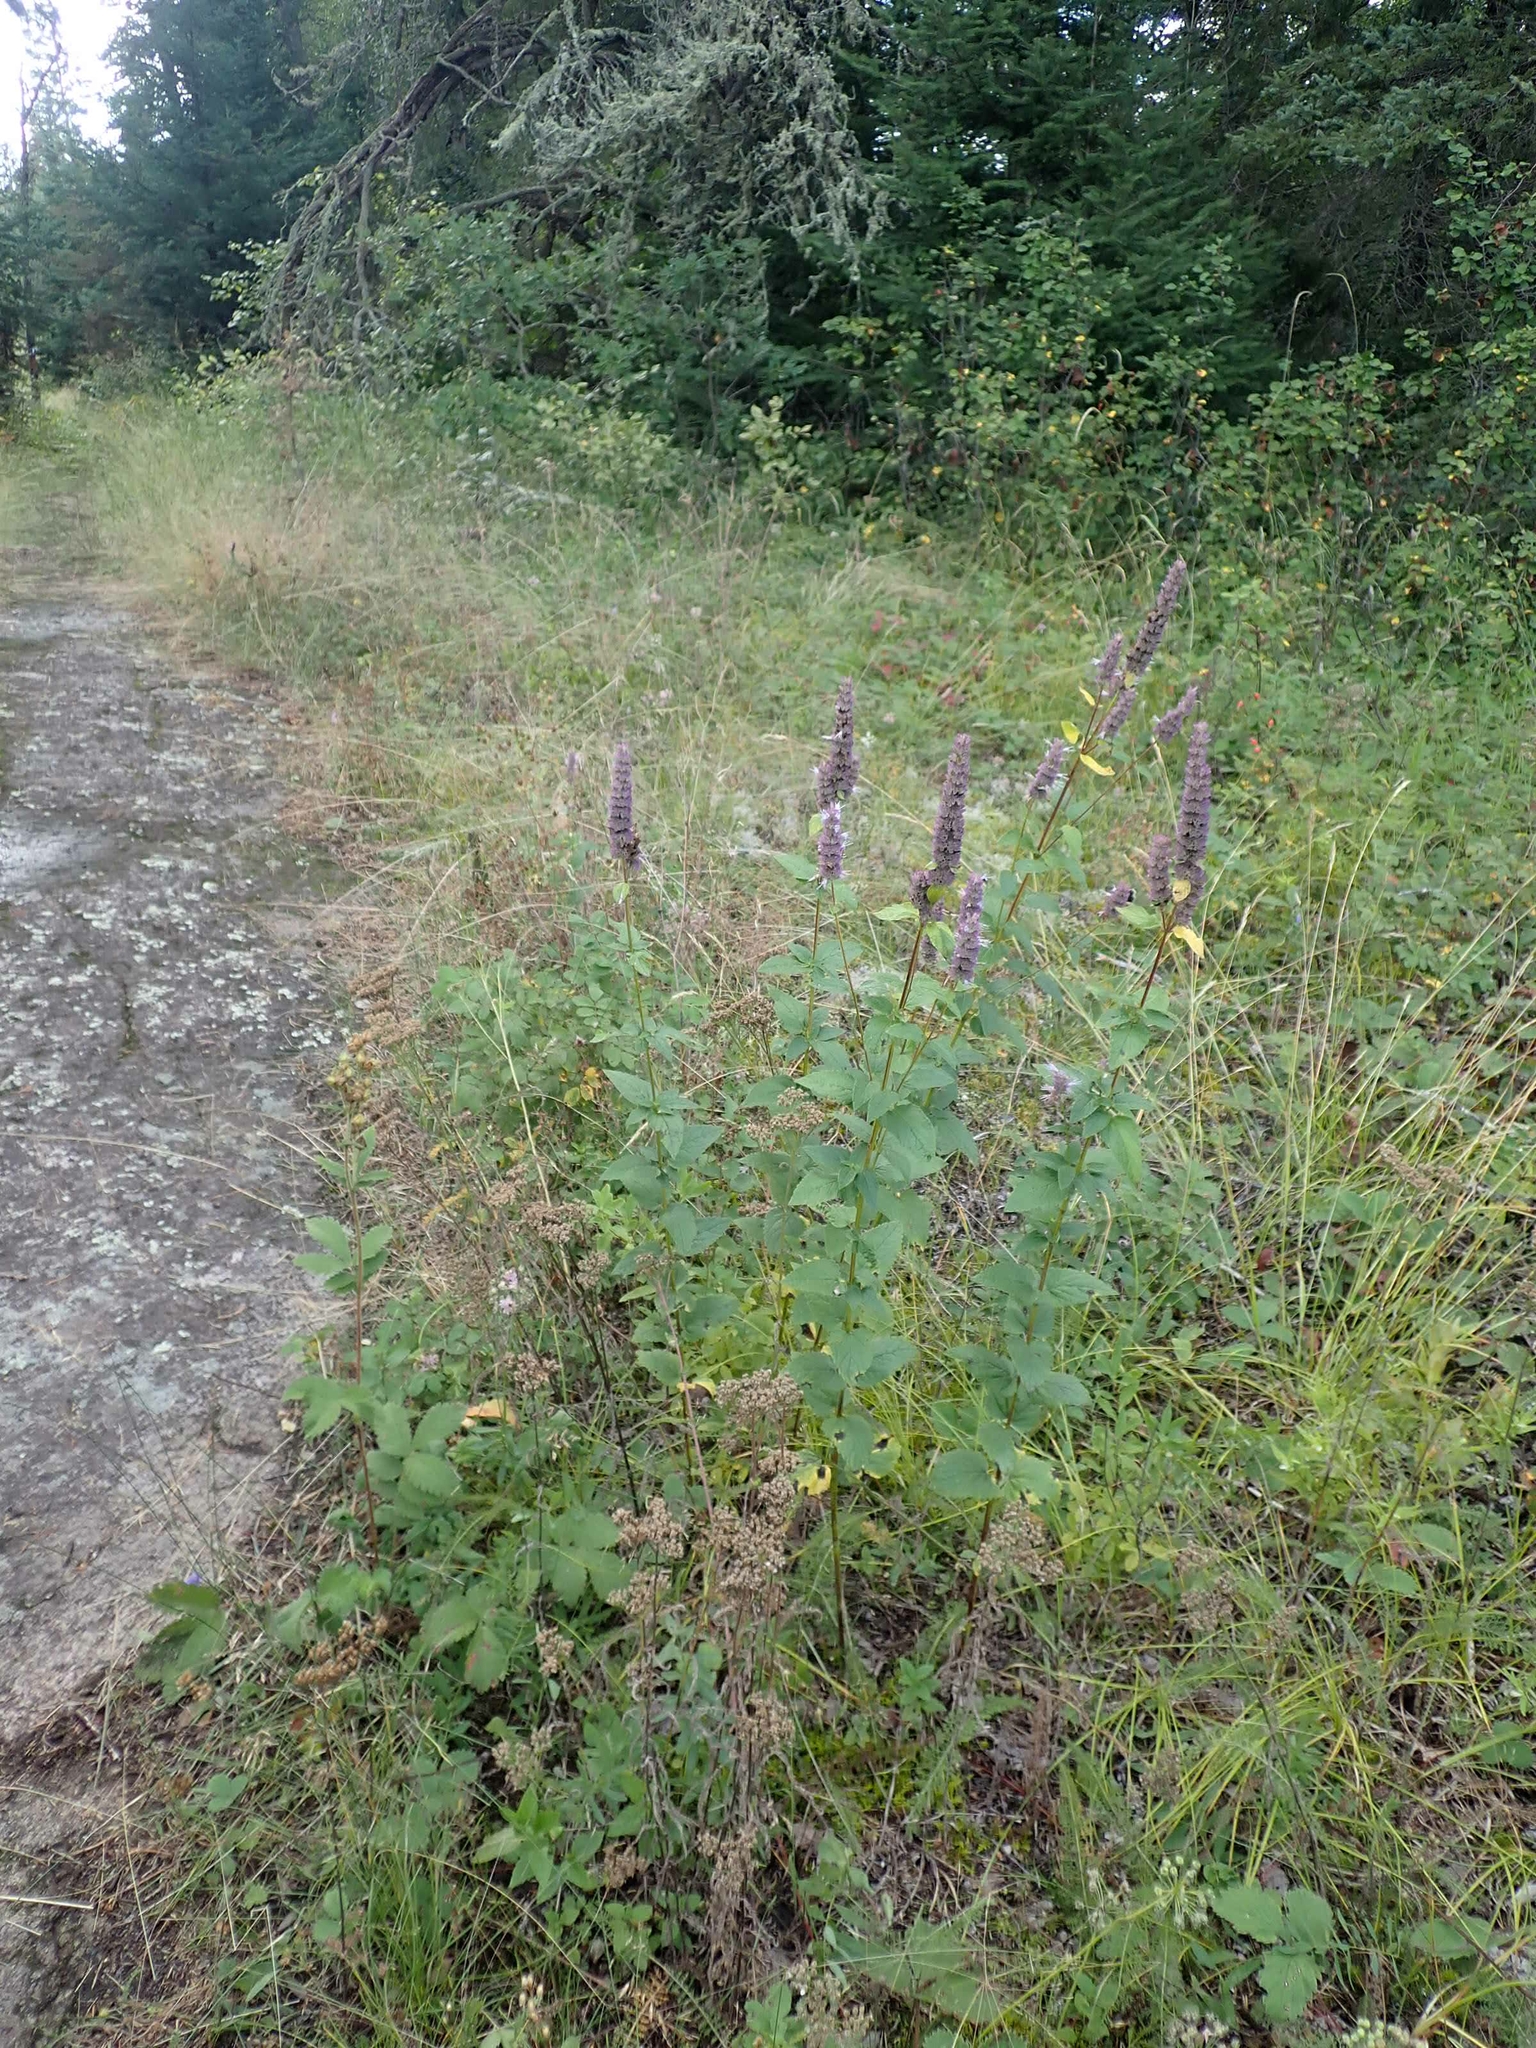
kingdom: Plantae
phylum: Tracheophyta
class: Magnoliopsida
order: Lamiales
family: Lamiaceae
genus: Agastache
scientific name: Agastache foeniculum
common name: Anise hyssop
